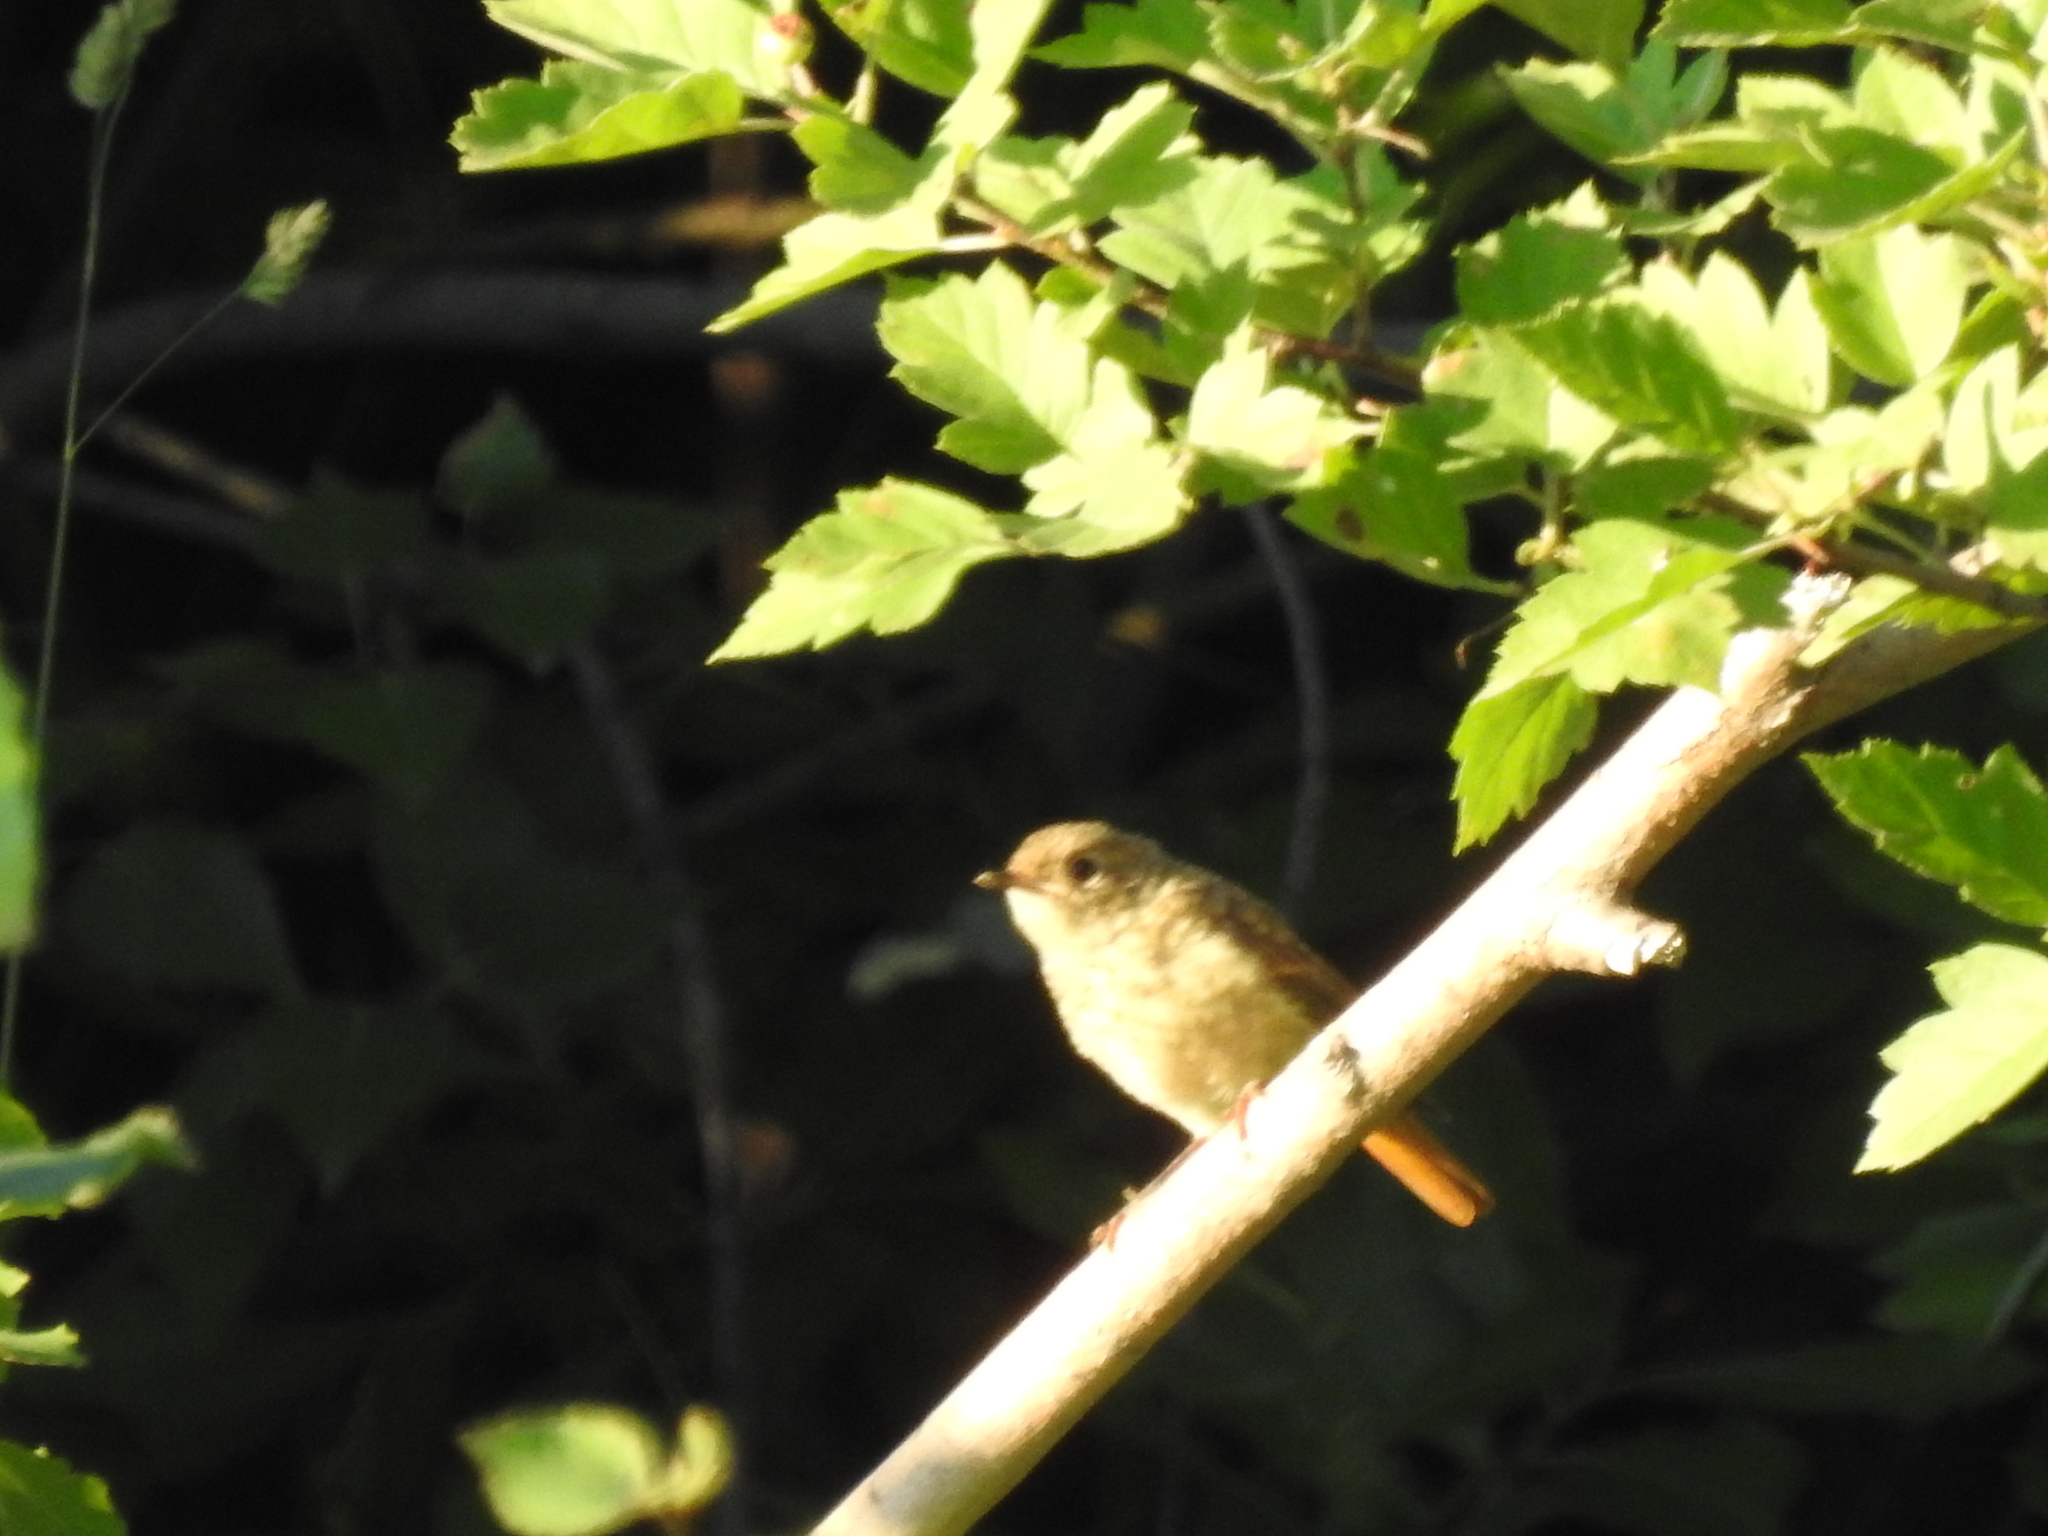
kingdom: Animalia
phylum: Chordata
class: Aves
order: Passeriformes
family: Muscicapidae
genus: Phoenicurus
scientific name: Phoenicurus phoenicurus
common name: Common redstart
